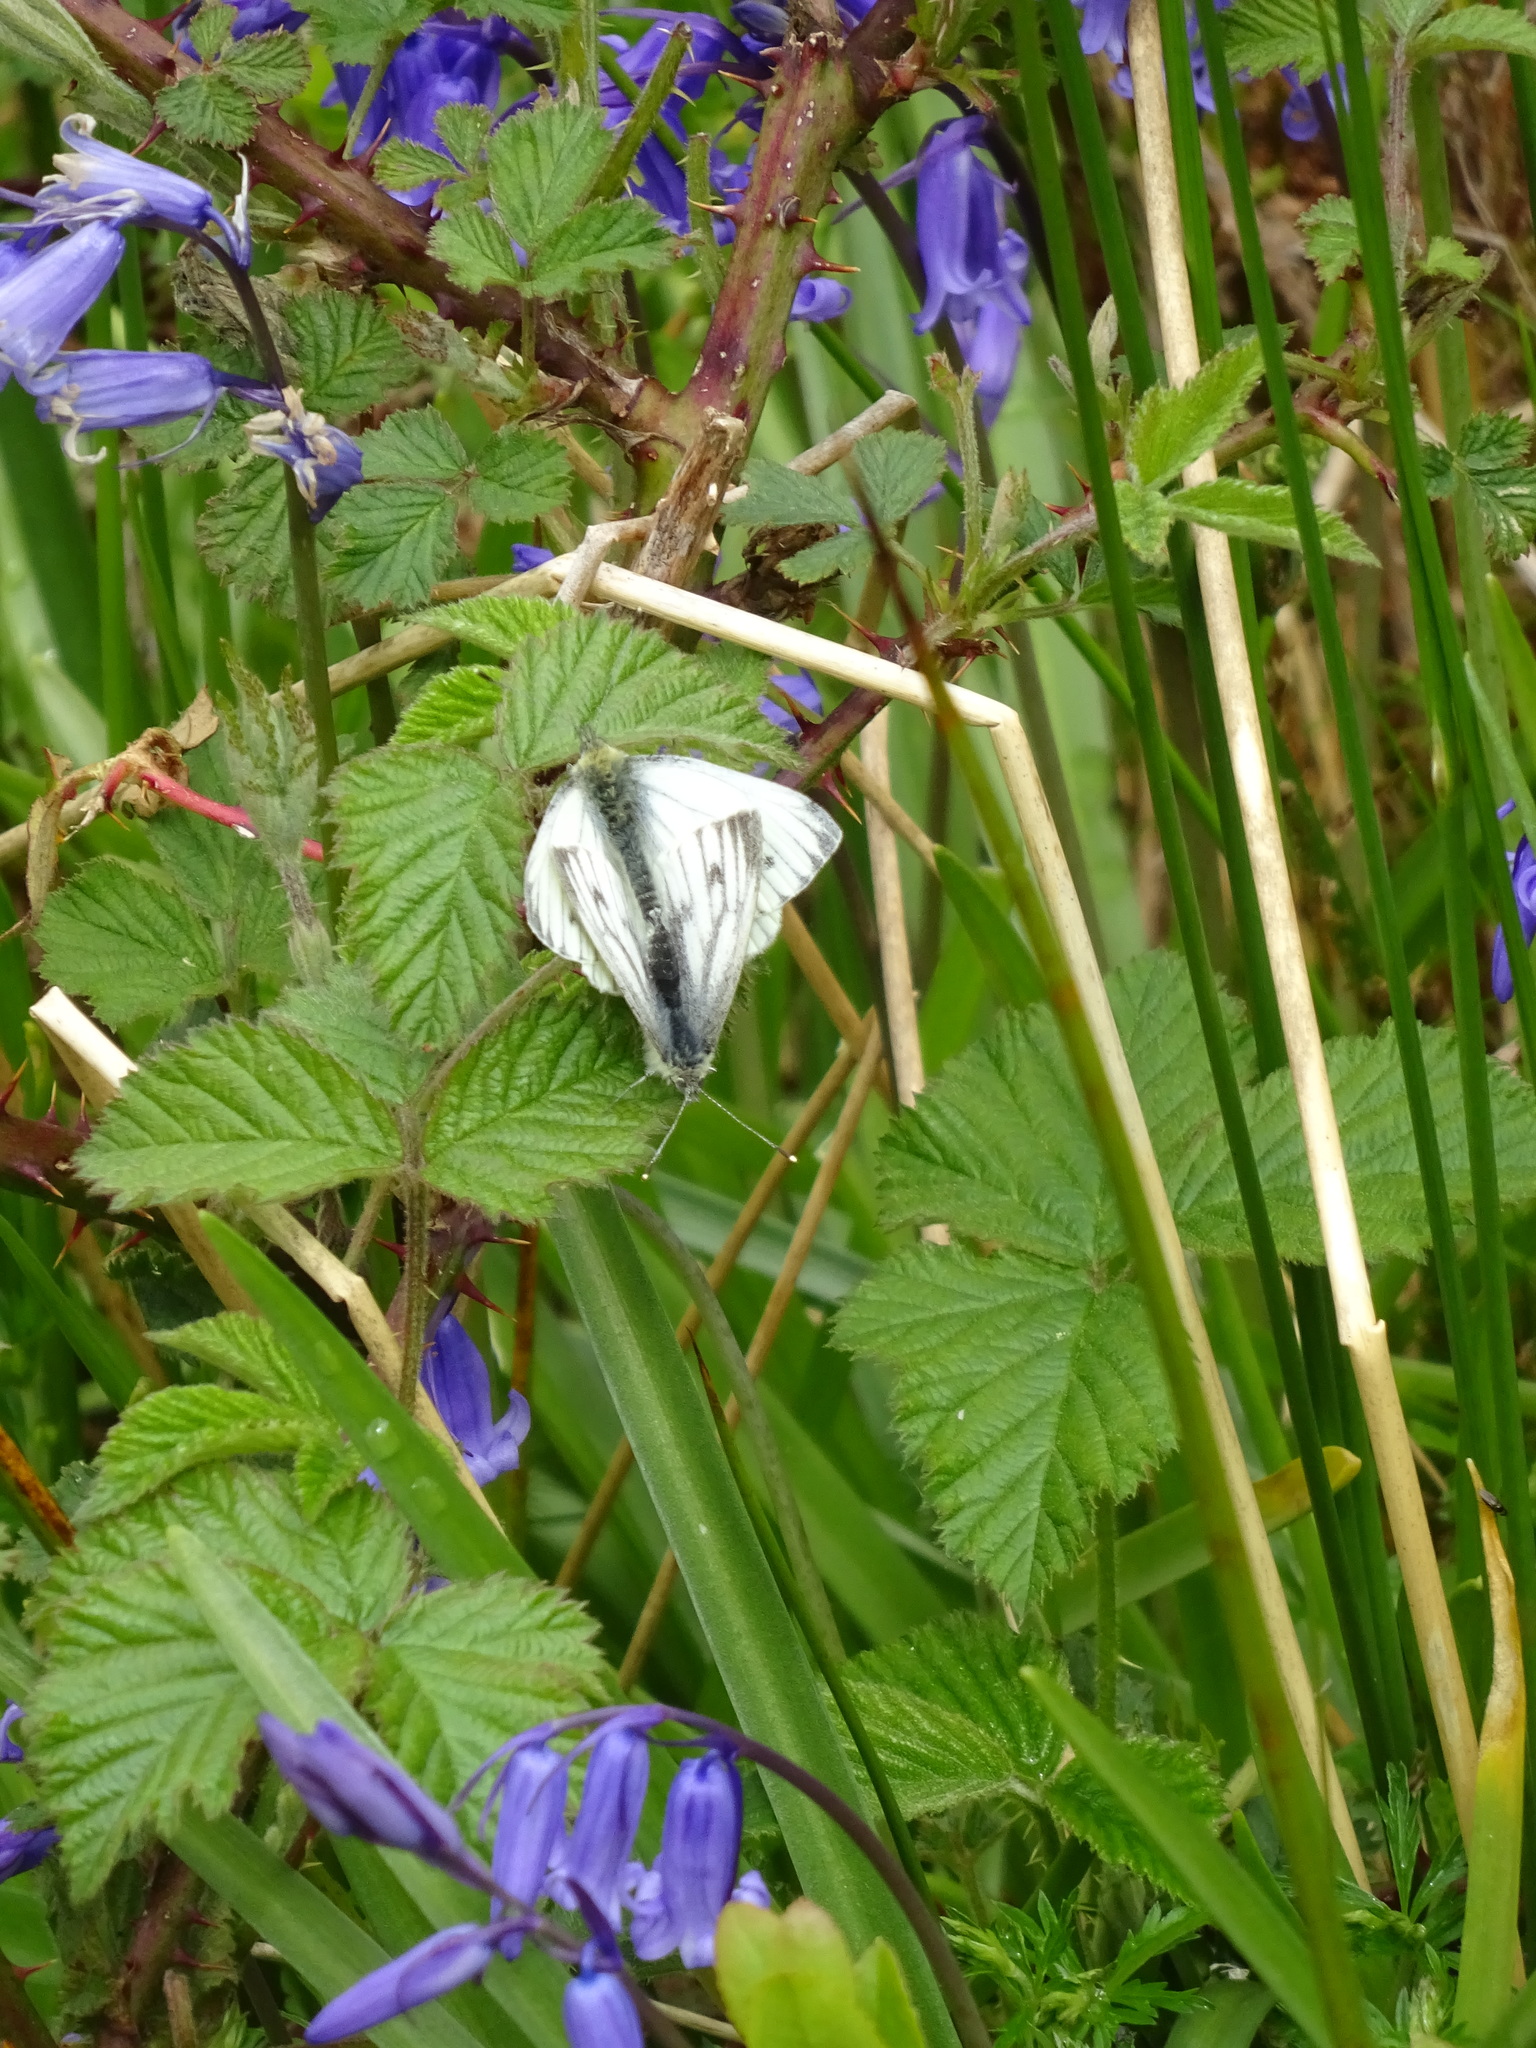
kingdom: Animalia
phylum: Arthropoda
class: Insecta
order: Lepidoptera
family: Pieridae
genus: Pieris
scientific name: Pieris napi
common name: Green-veined white
